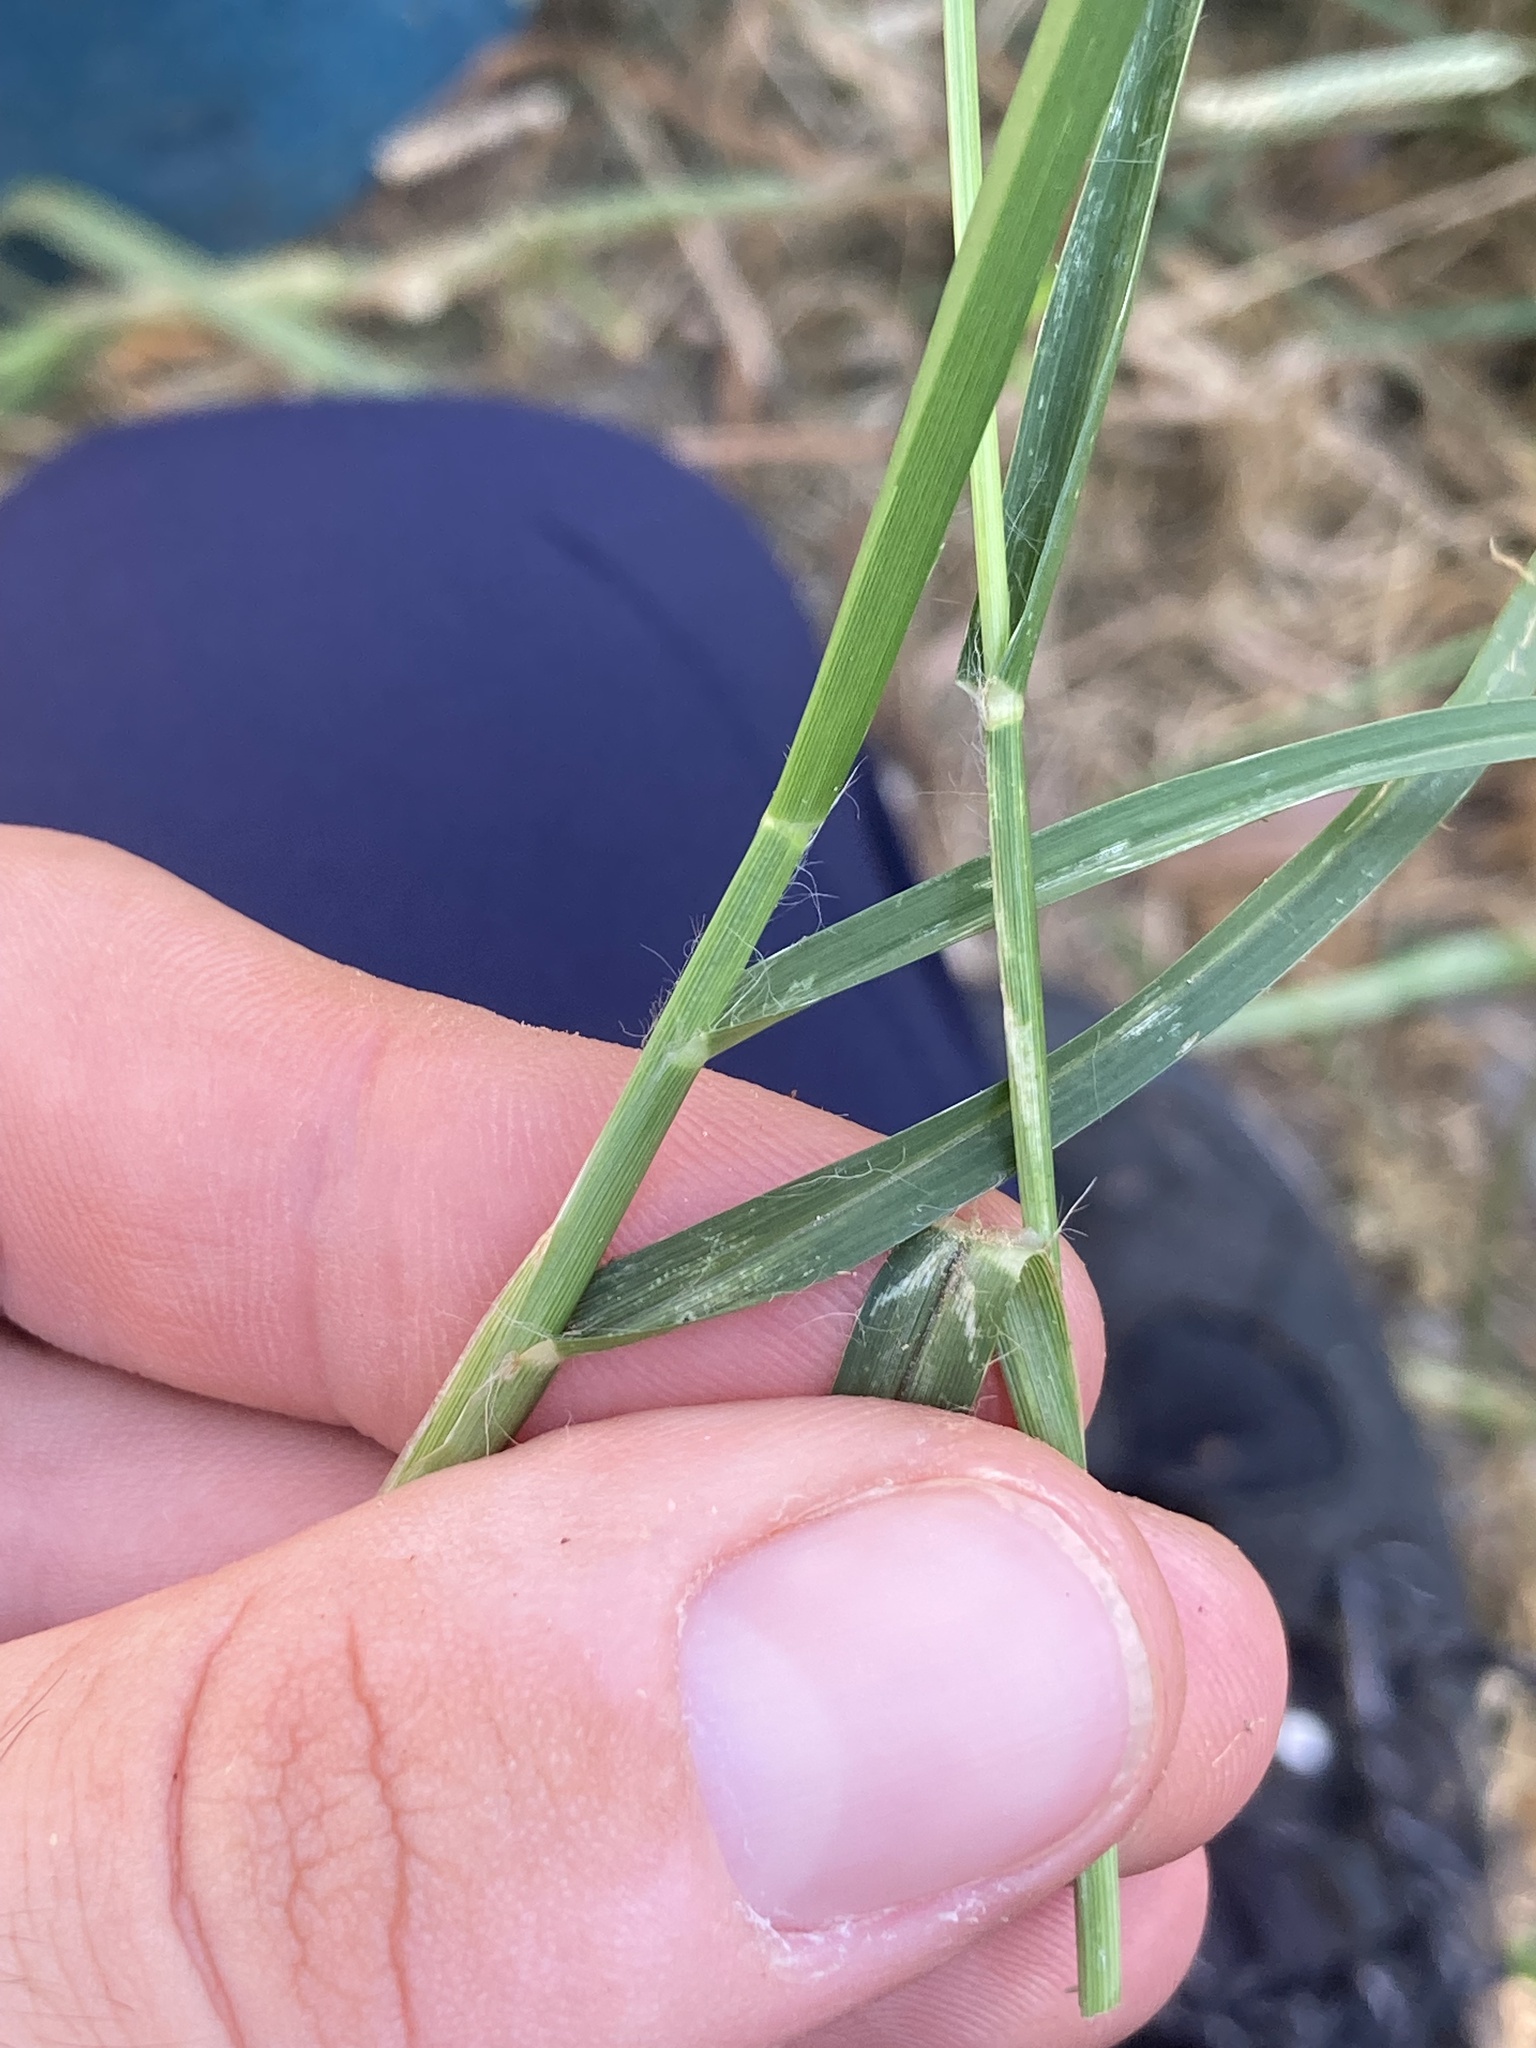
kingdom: Plantae
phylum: Tracheophyta
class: Liliopsida
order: Poales
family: Poaceae
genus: Eleusine
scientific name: Eleusine indica
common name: Yard-grass
